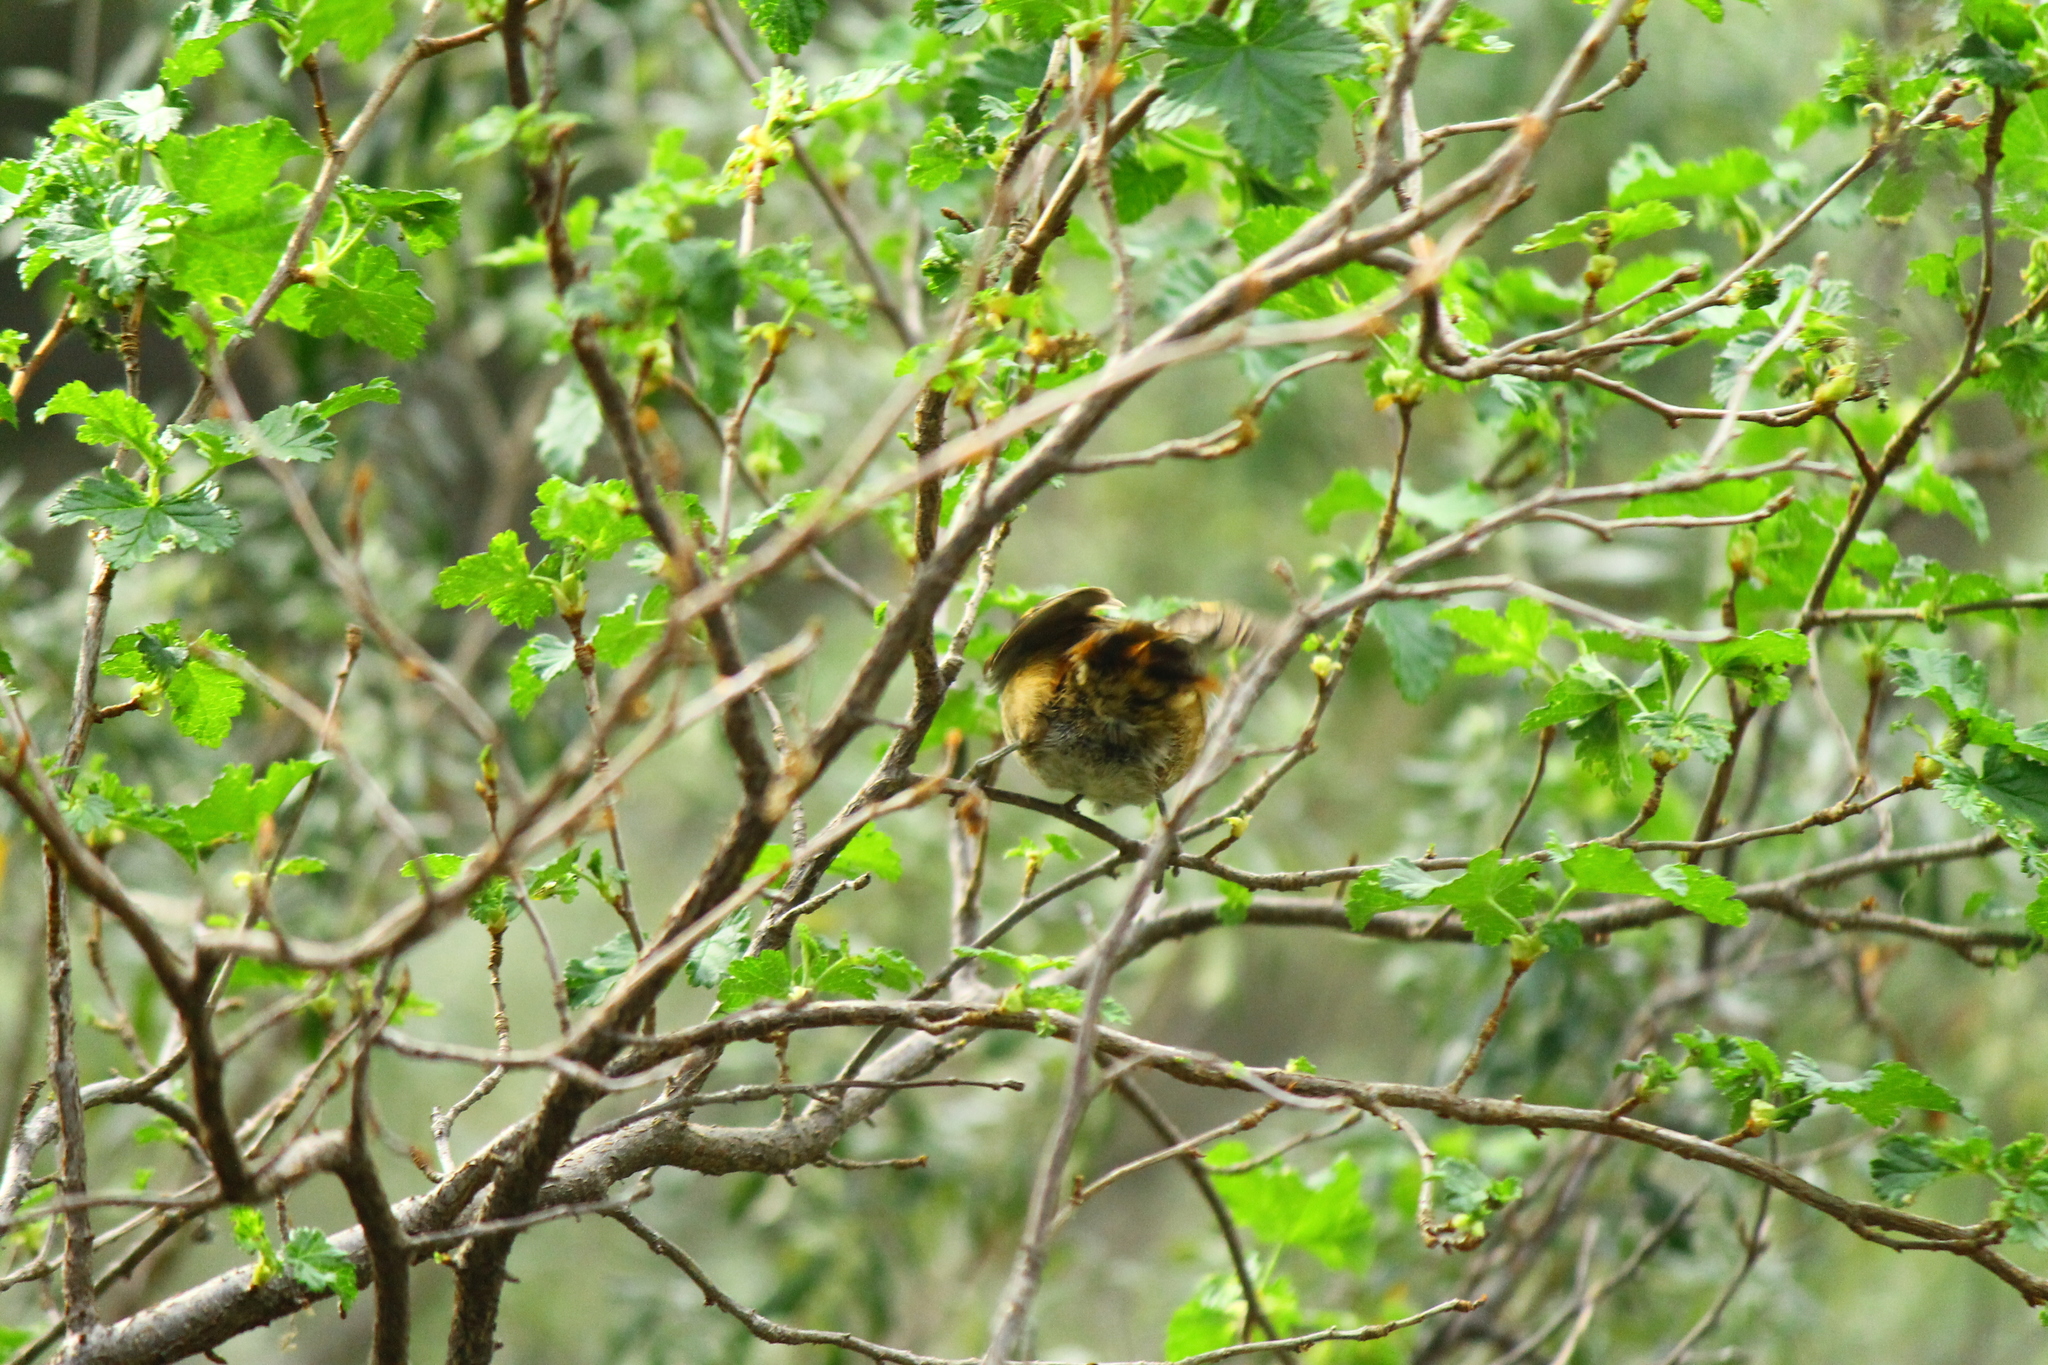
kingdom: Animalia
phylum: Chordata
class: Aves
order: Passeriformes
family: Furnariidae
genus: Aphrastura
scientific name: Aphrastura spinicauda
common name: Thorn-tailed rayadito
